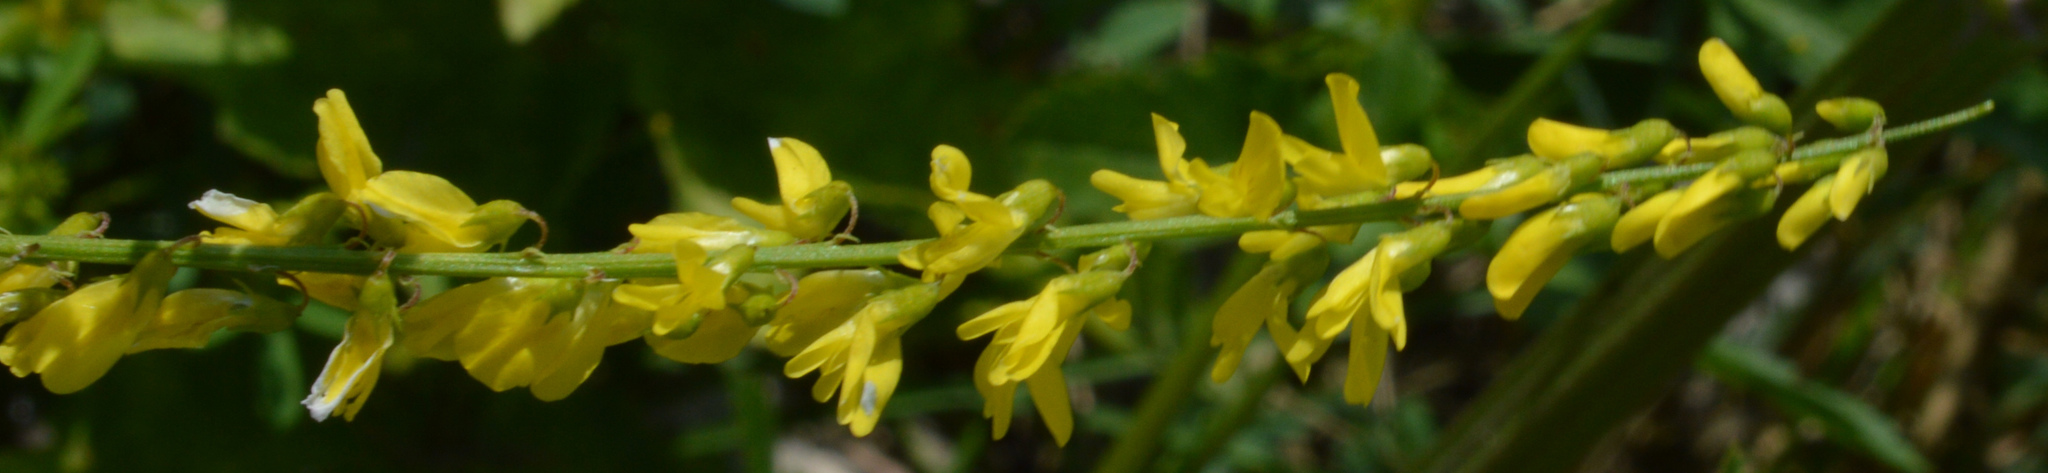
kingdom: Plantae
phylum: Tracheophyta
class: Magnoliopsida
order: Fabales
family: Fabaceae
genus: Melilotus
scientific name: Melilotus officinalis
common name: Sweetclover
